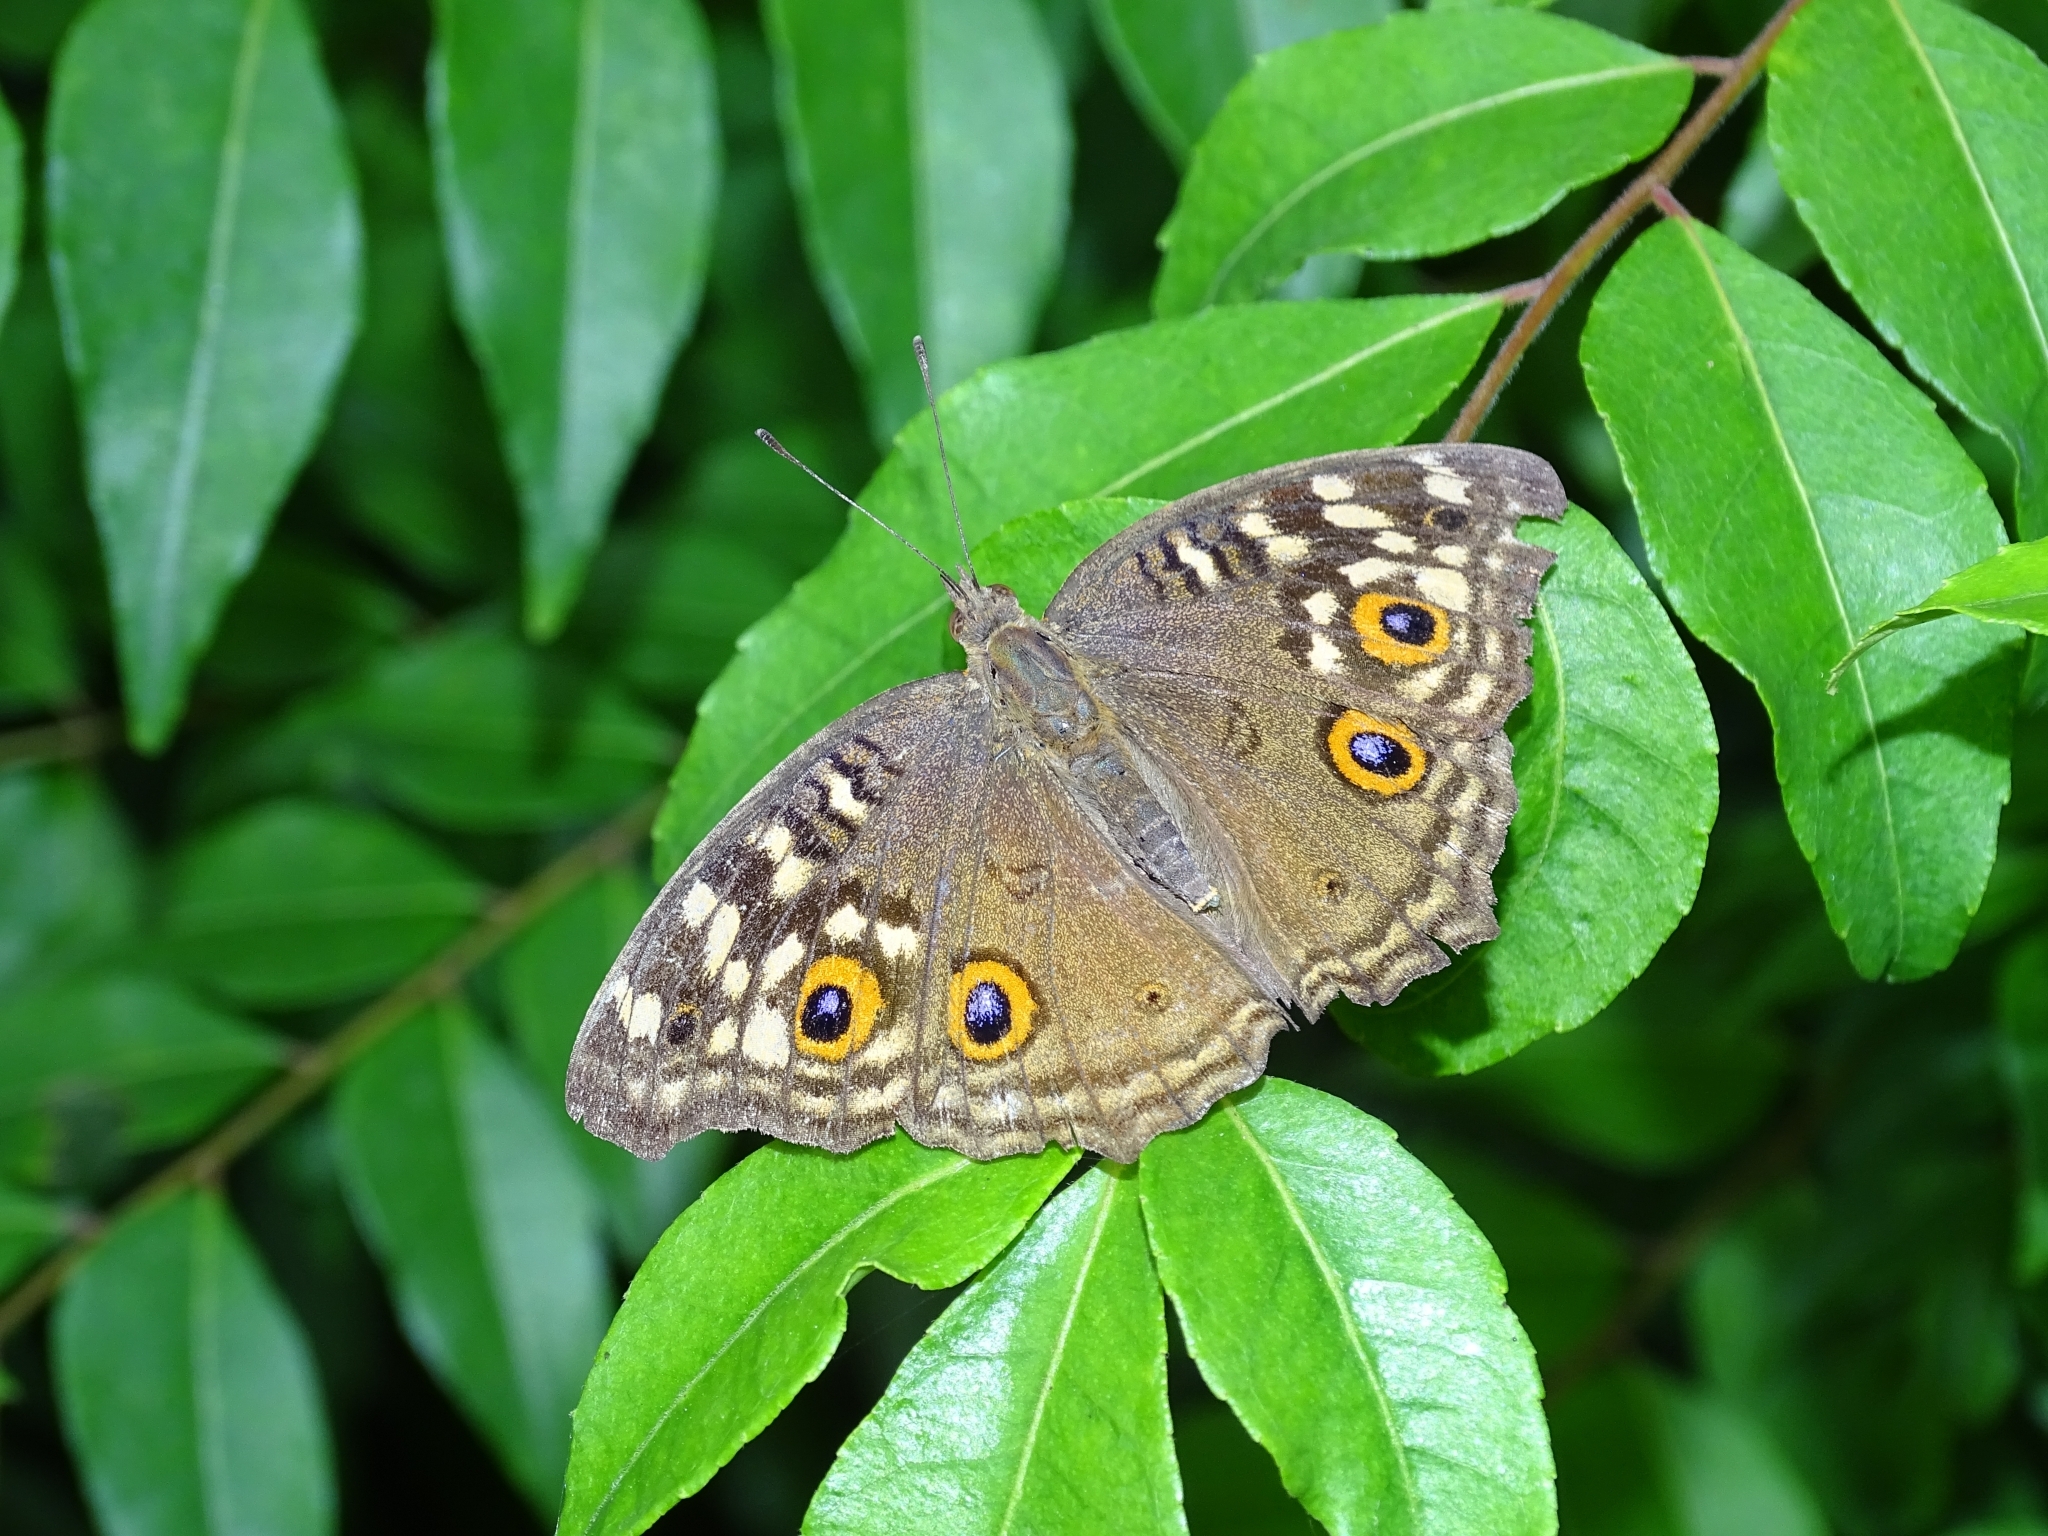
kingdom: Animalia
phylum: Arthropoda
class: Insecta
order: Lepidoptera
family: Nymphalidae
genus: Junonia
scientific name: Junonia lemonias
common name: Lemon pansy
